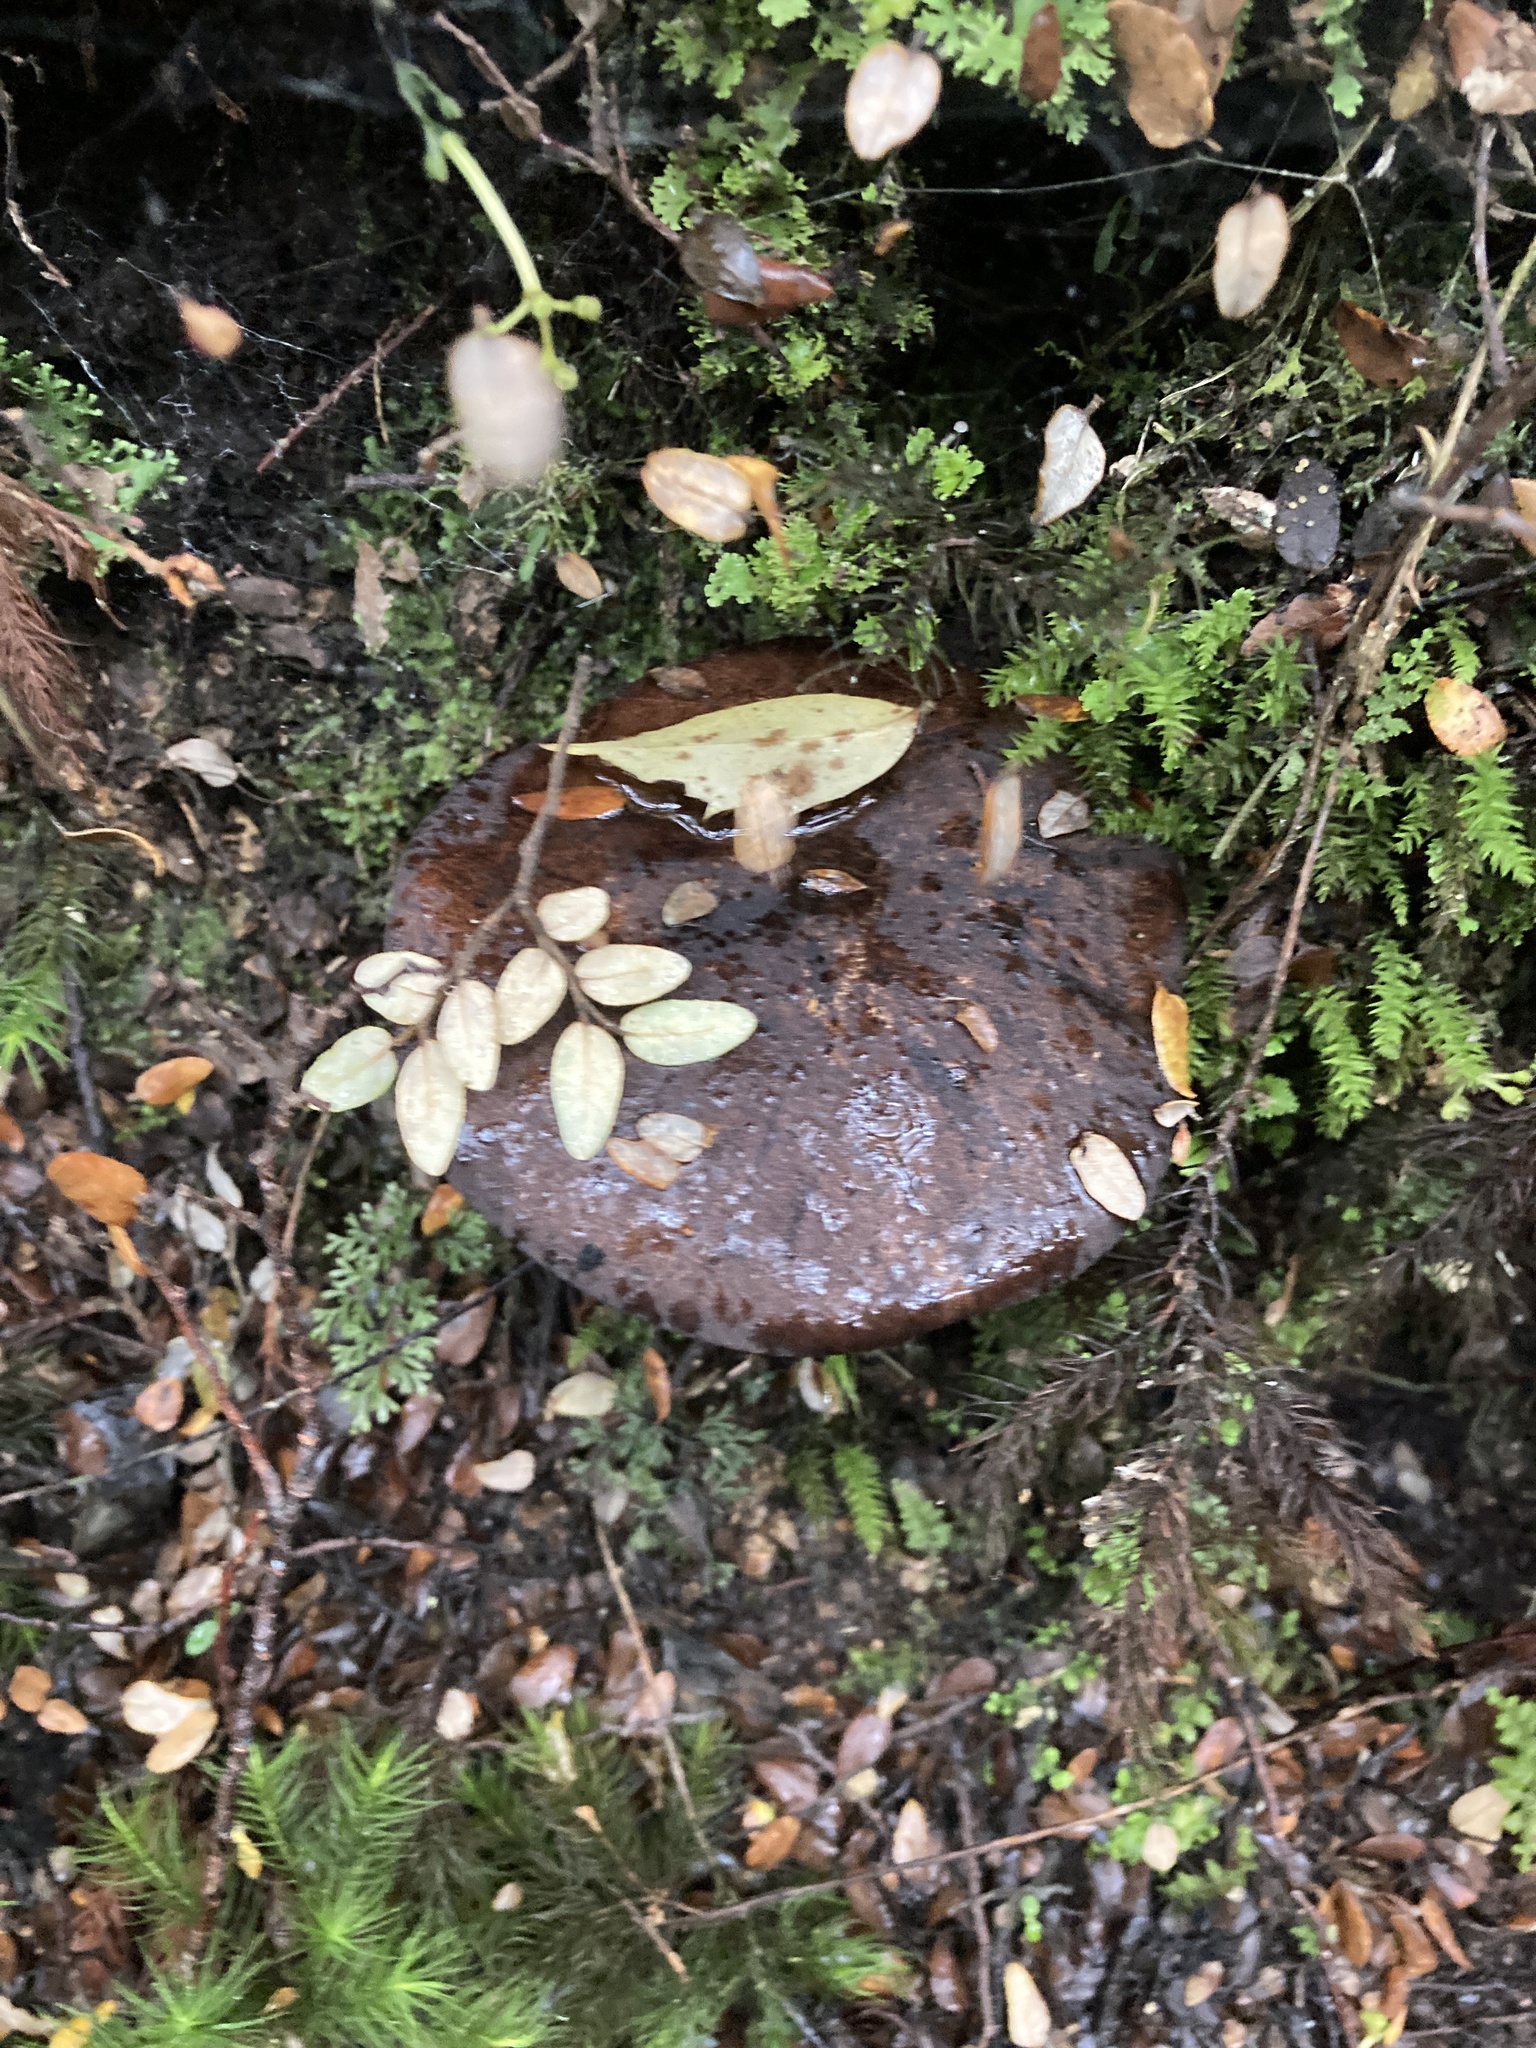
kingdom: Fungi
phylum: Basidiomycota
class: Agaricomycetes
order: Boletales
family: Boletaceae
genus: Porphyrellus
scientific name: Porphyrellus formosus
